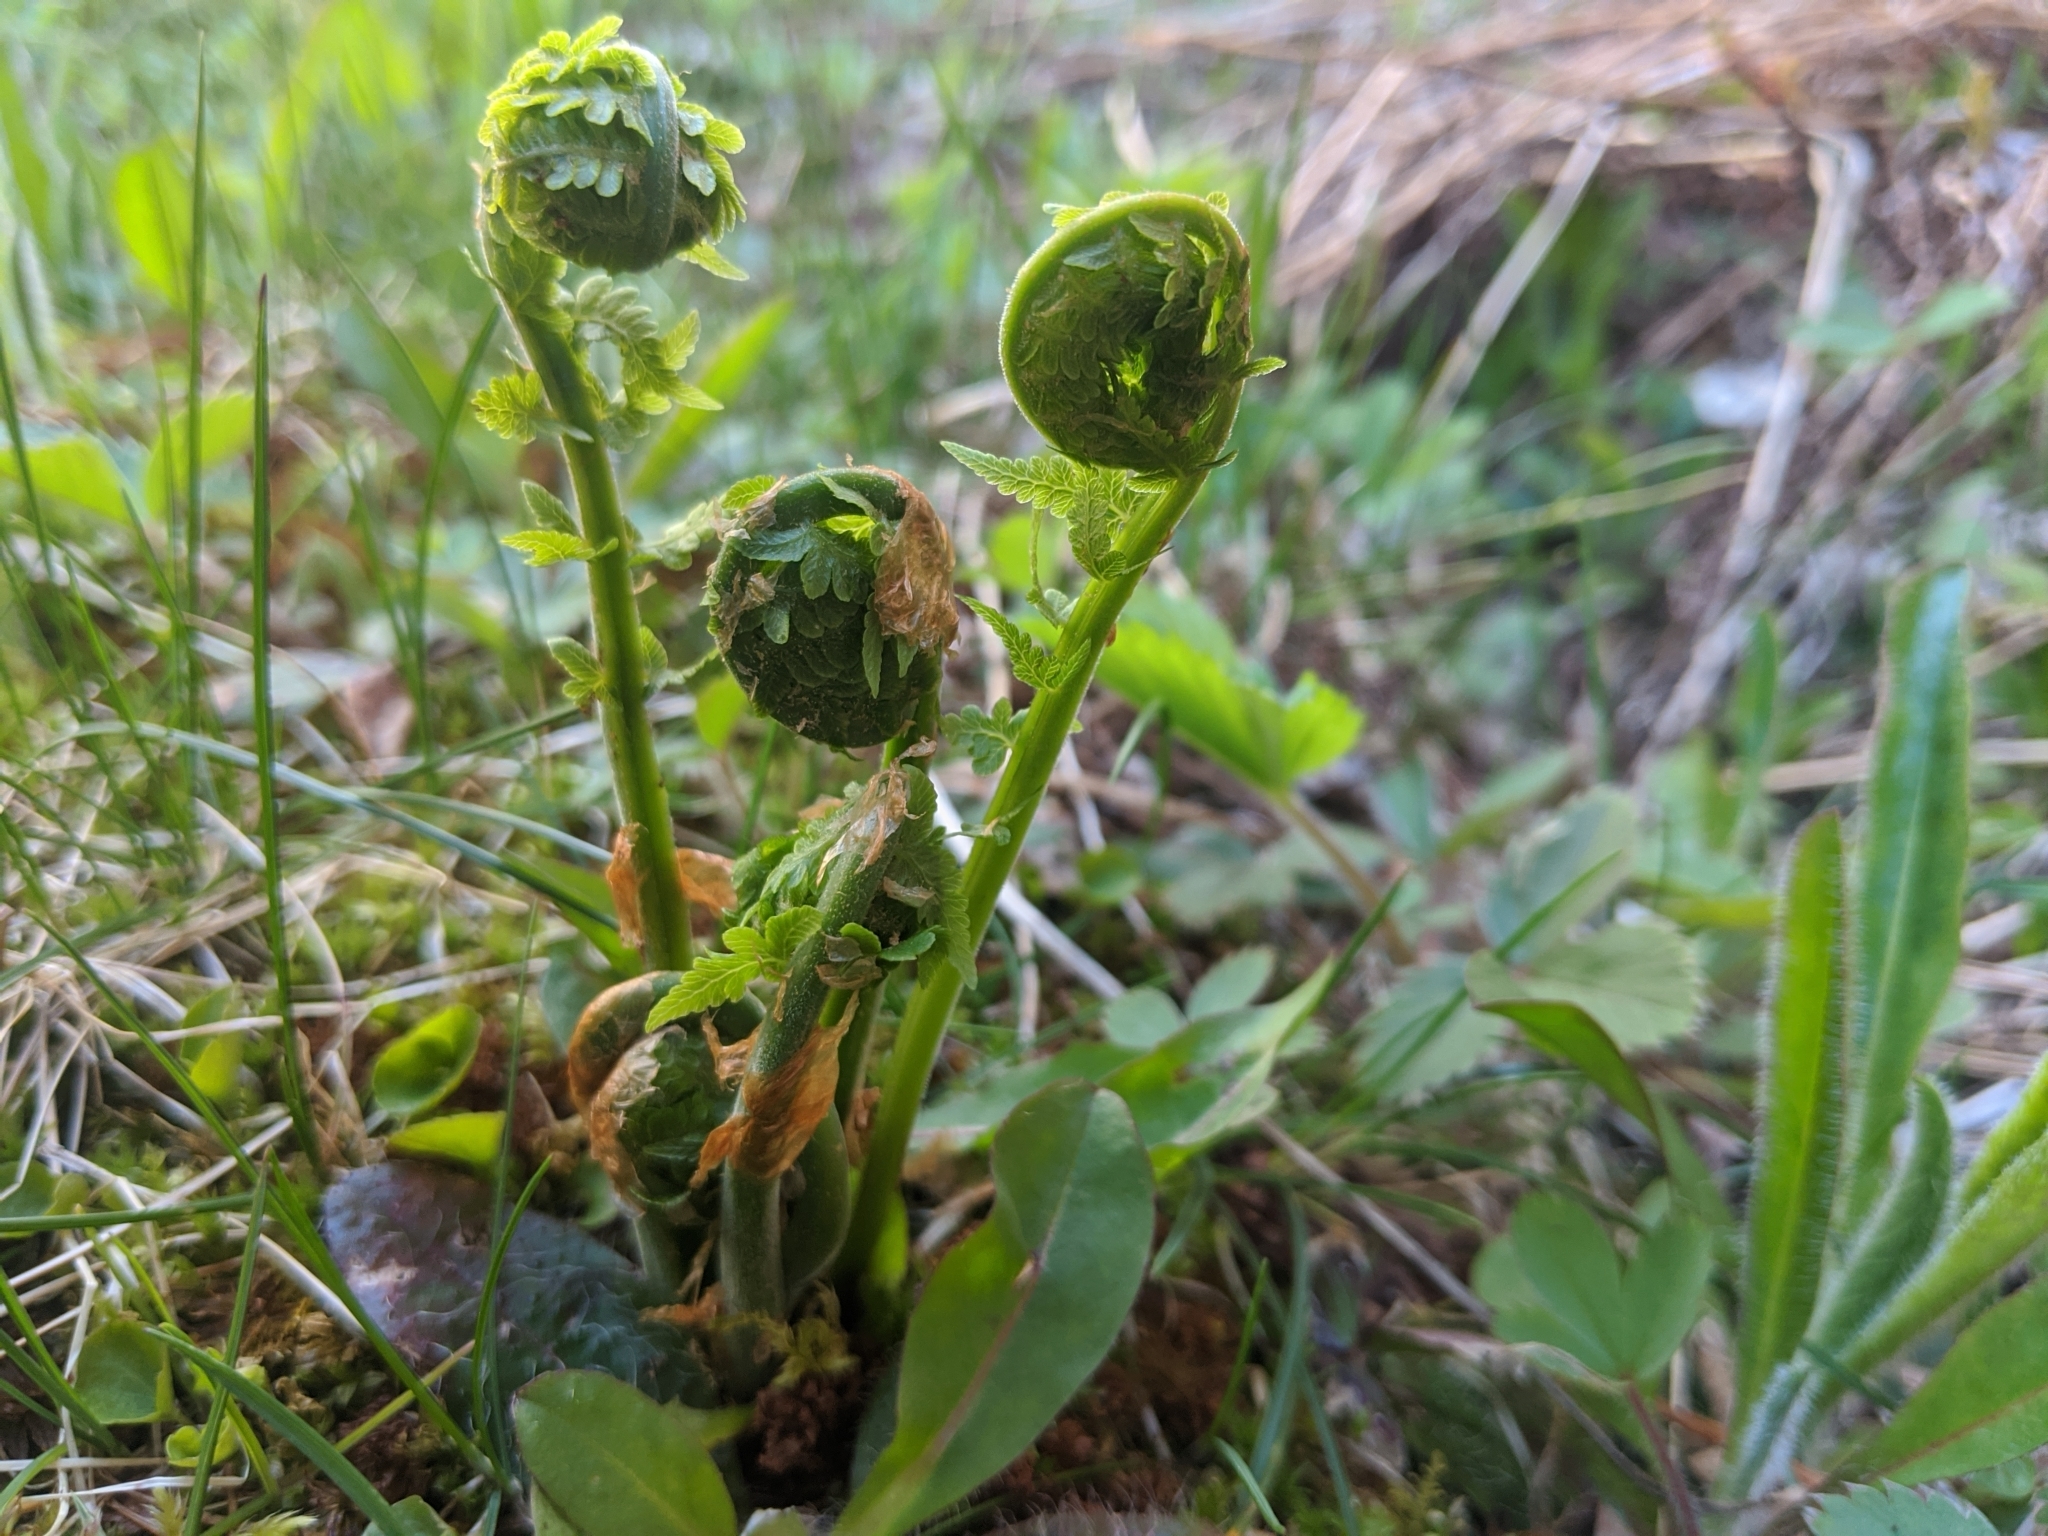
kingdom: Plantae
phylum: Tracheophyta
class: Polypodiopsida
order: Polypodiales
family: Onocleaceae
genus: Matteuccia
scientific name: Matteuccia struthiopteris
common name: Ostrich fern
